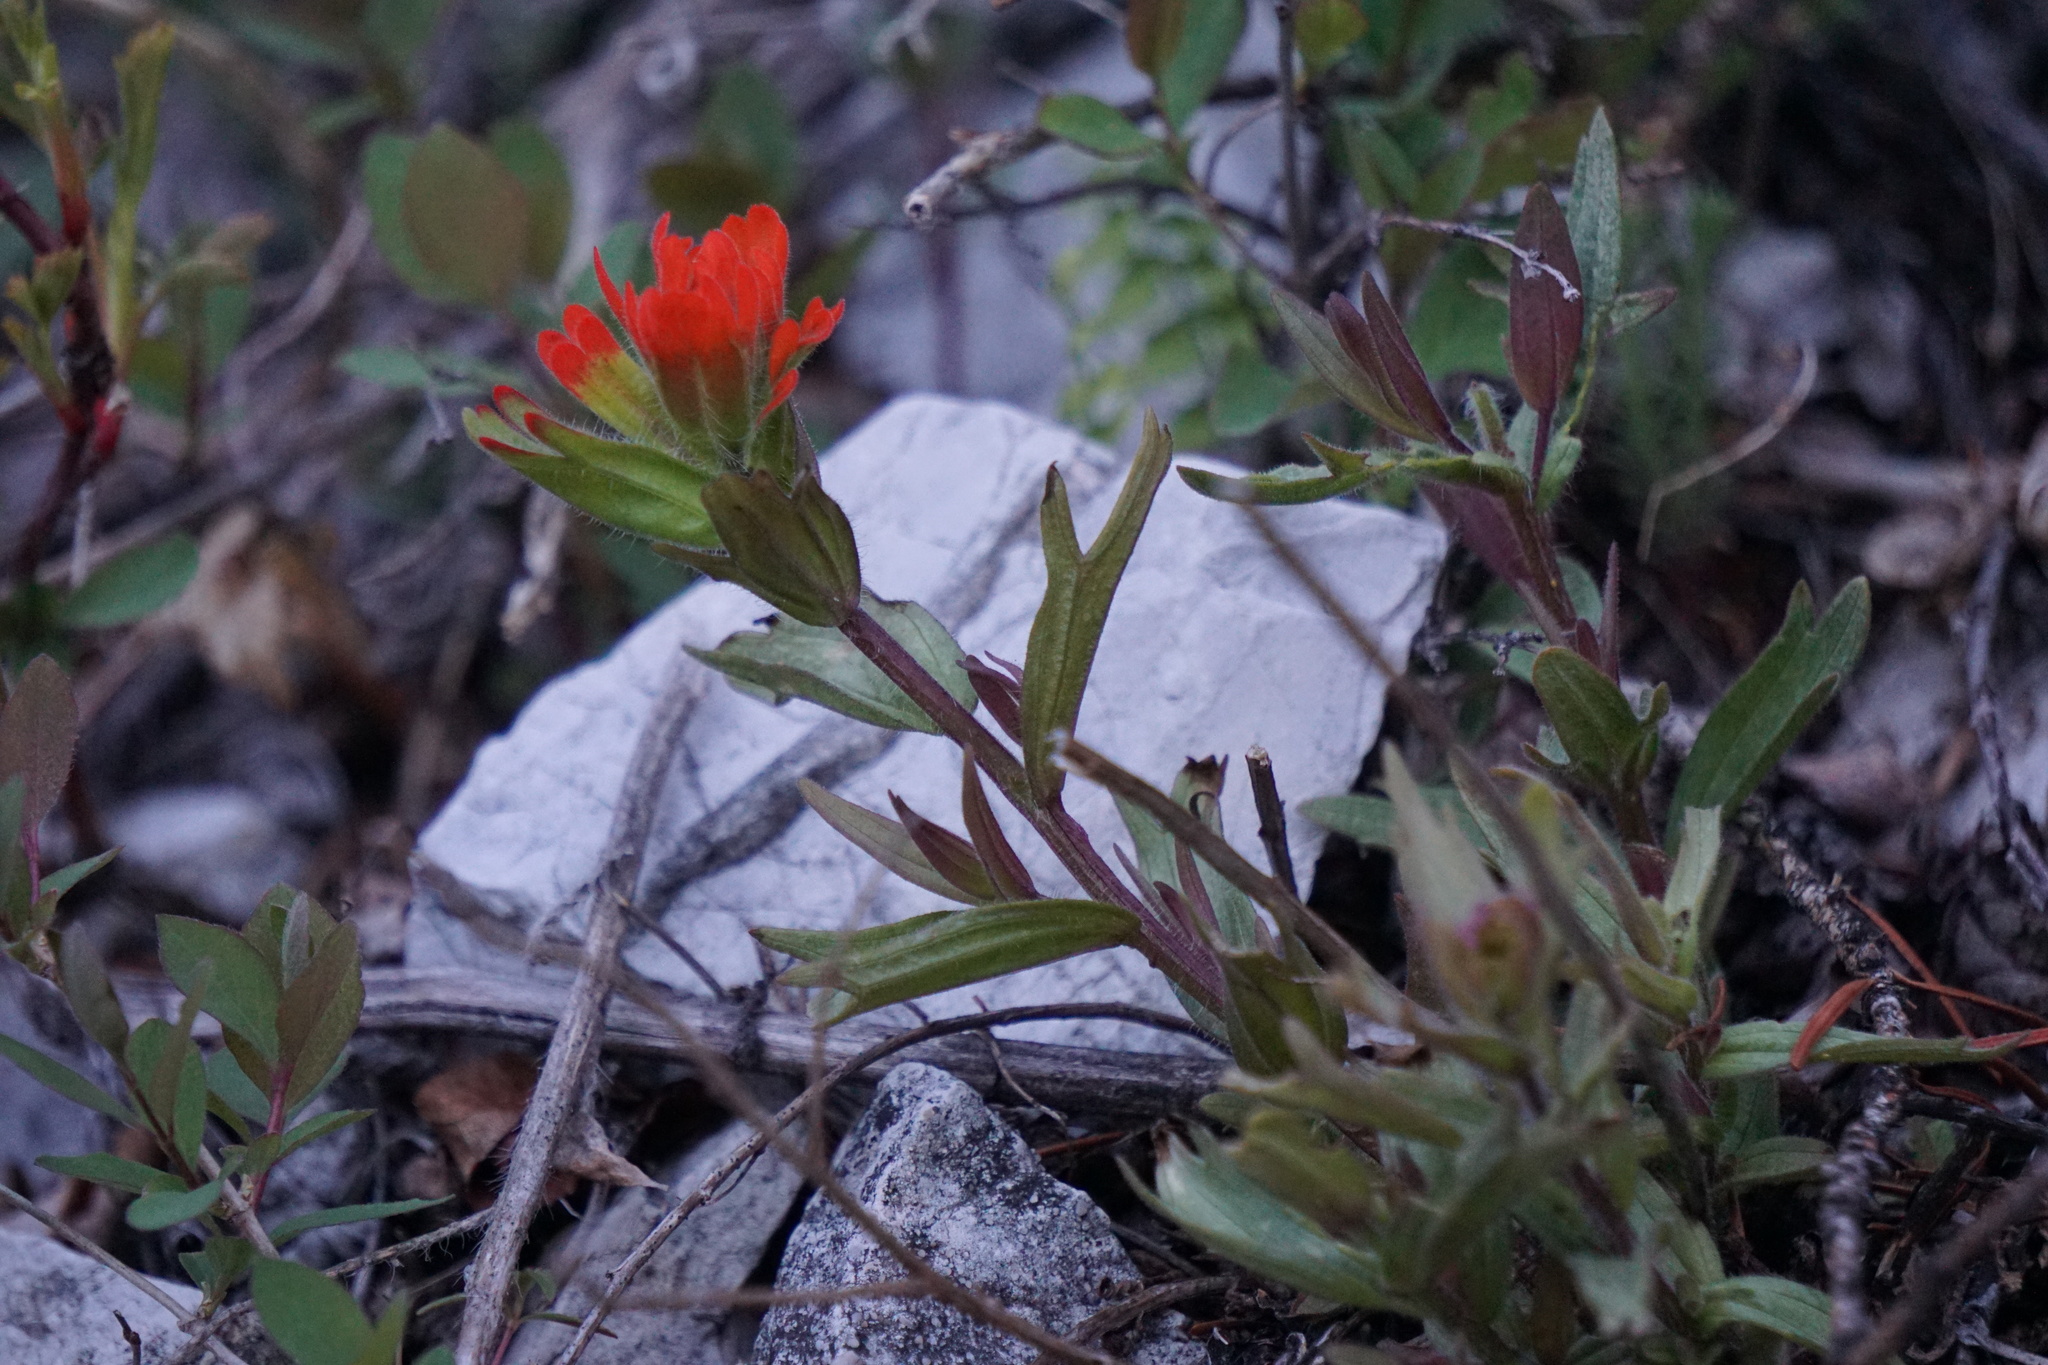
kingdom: Plantae
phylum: Tracheophyta
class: Magnoliopsida
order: Lamiales
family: Orobanchaceae
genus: Castilleja
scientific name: Castilleja hispida
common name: Bristly paintbrush
